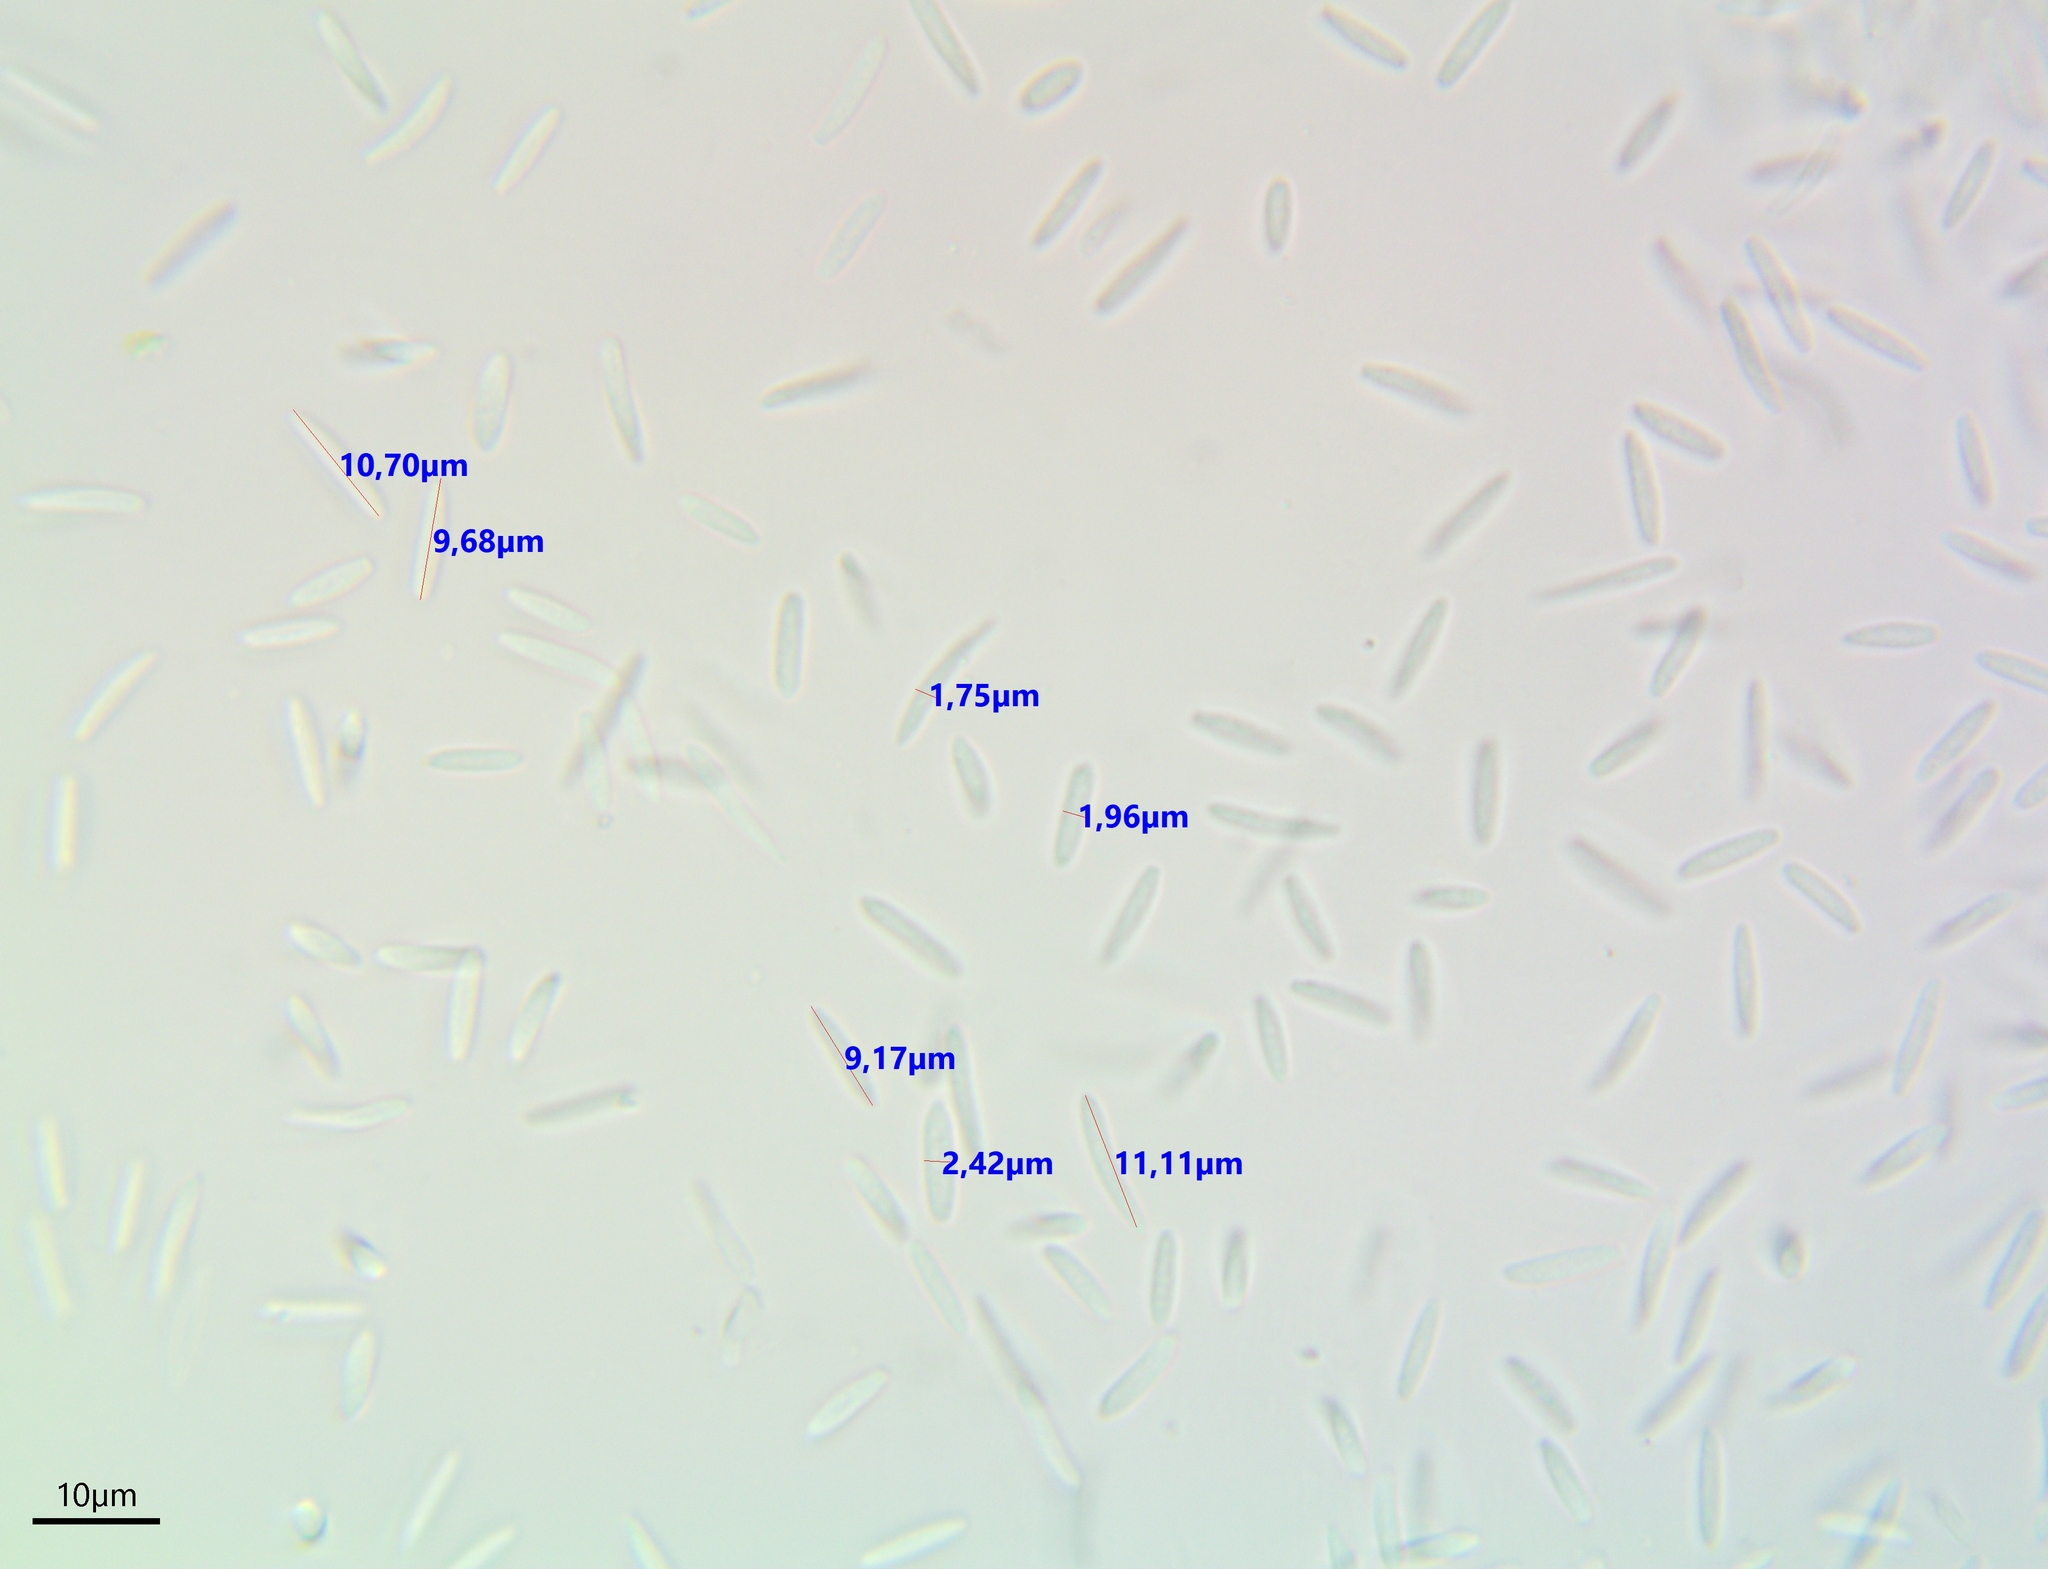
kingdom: Fungi
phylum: Ascomycota
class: Sordariomycetes
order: Diaporthales
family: Gnomoniaceae
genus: Titaeosporina
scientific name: Titaeosporina tremulae
